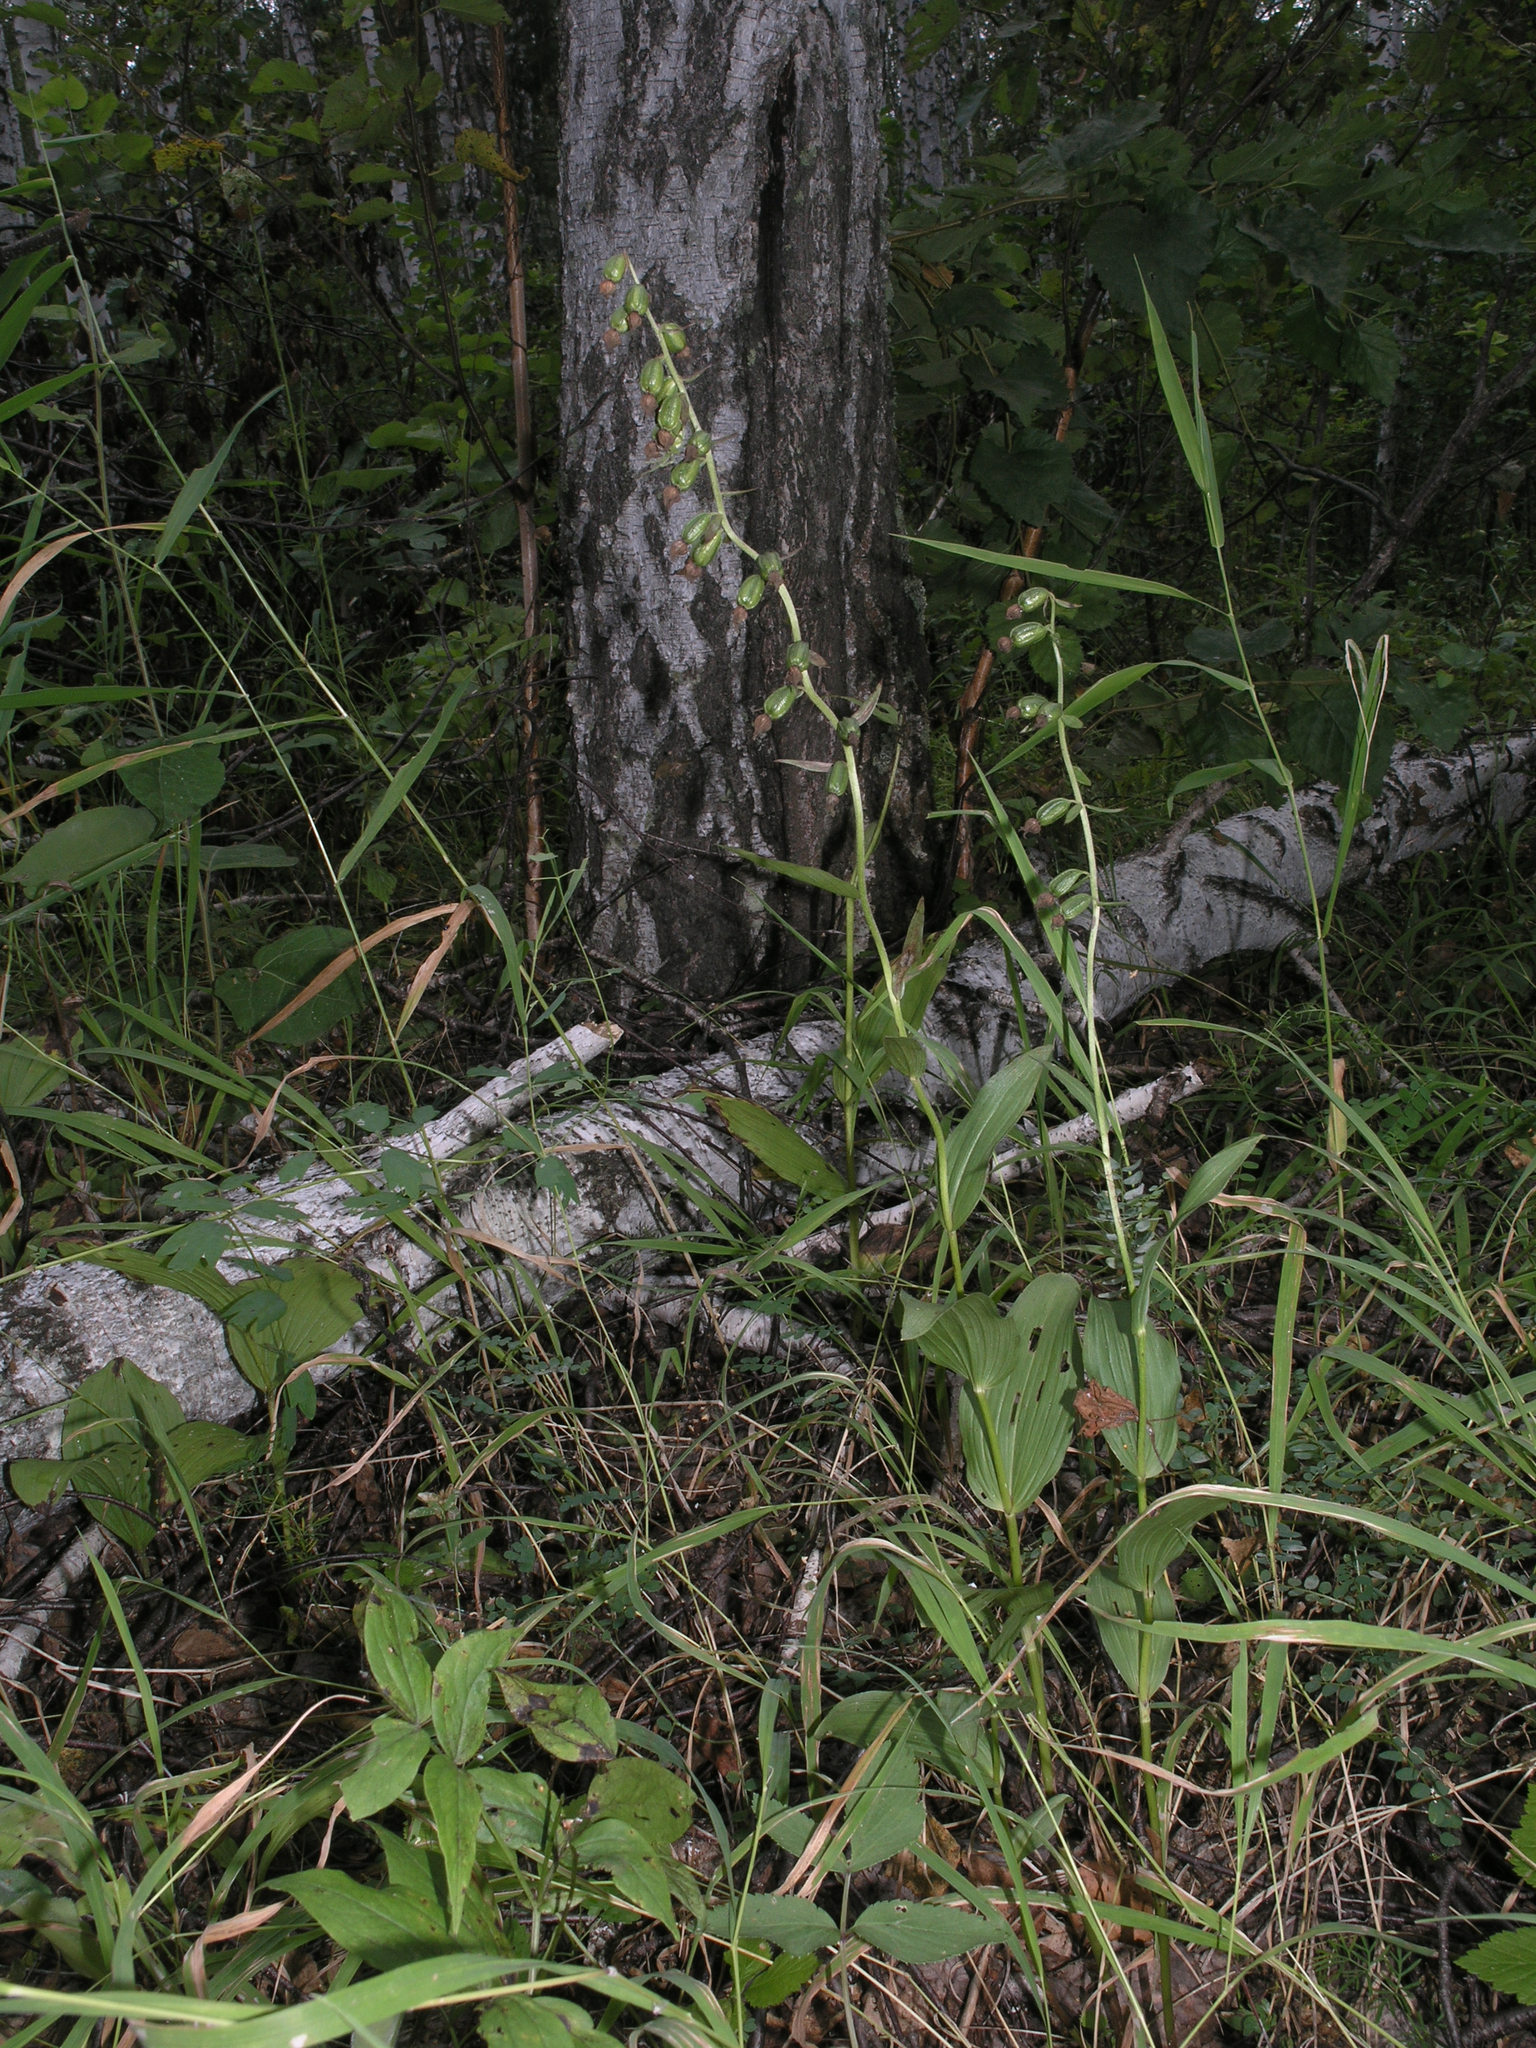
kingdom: Plantae
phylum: Tracheophyta
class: Liliopsida
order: Asparagales
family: Orchidaceae
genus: Epipactis
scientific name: Epipactis helleborine
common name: Broad-leaved helleborine
